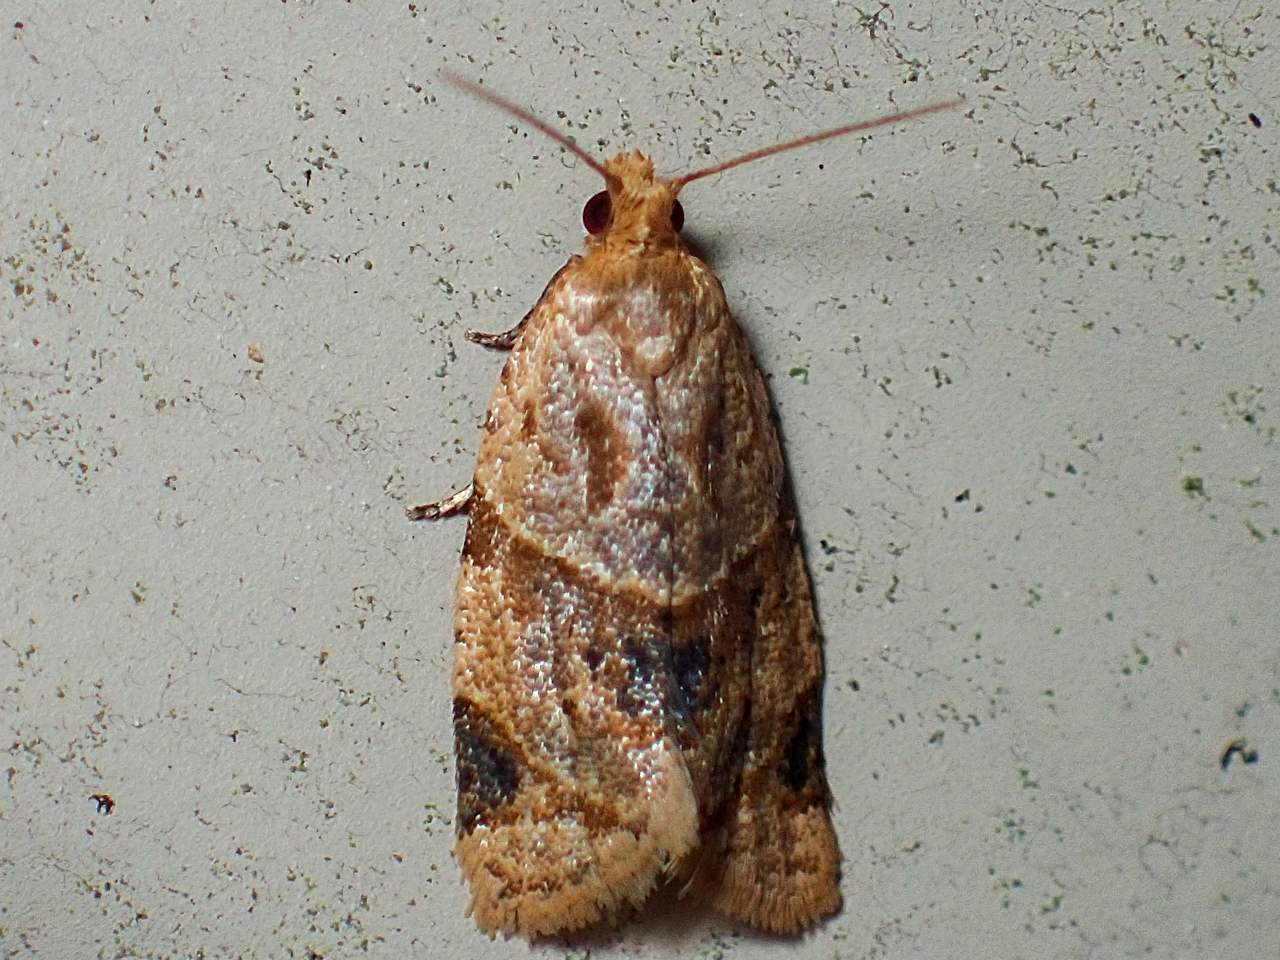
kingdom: Animalia
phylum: Arthropoda
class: Insecta
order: Lepidoptera
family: Tortricidae
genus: Clepsis
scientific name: Clepsis peritana
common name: Garden tortrix
